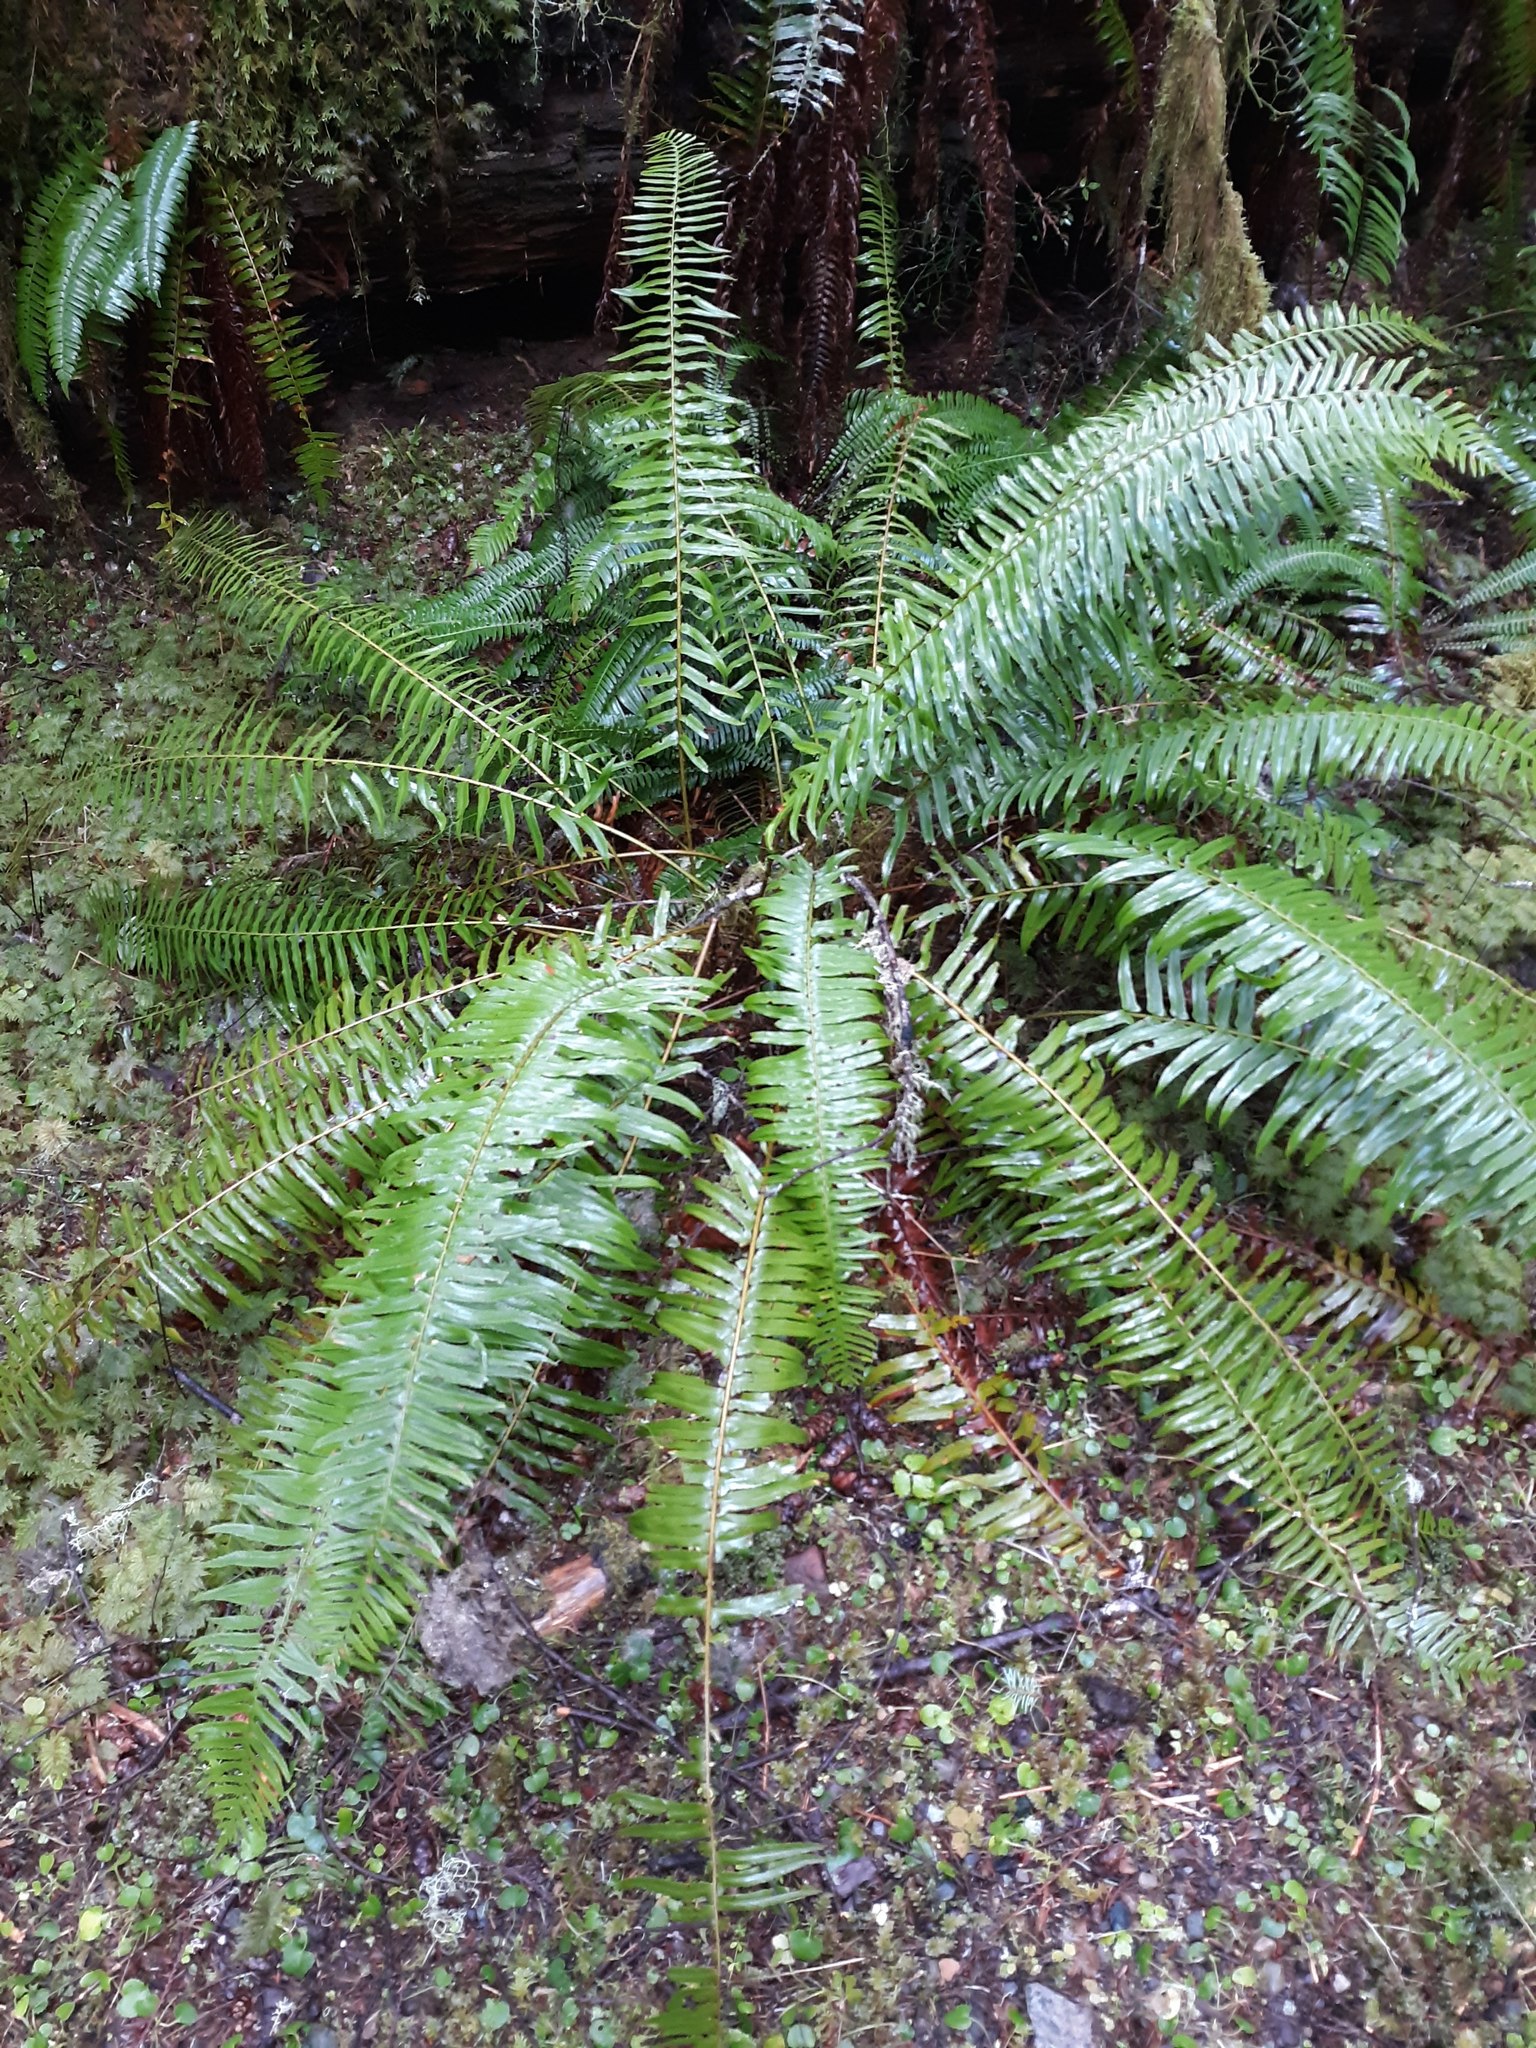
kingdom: Plantae
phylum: Tracheophyta
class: Polypodiopsida
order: Polypodiales
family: Dryopteridaceae
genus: Polystichum
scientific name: Polystichum munitum
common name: Western sword-fern
